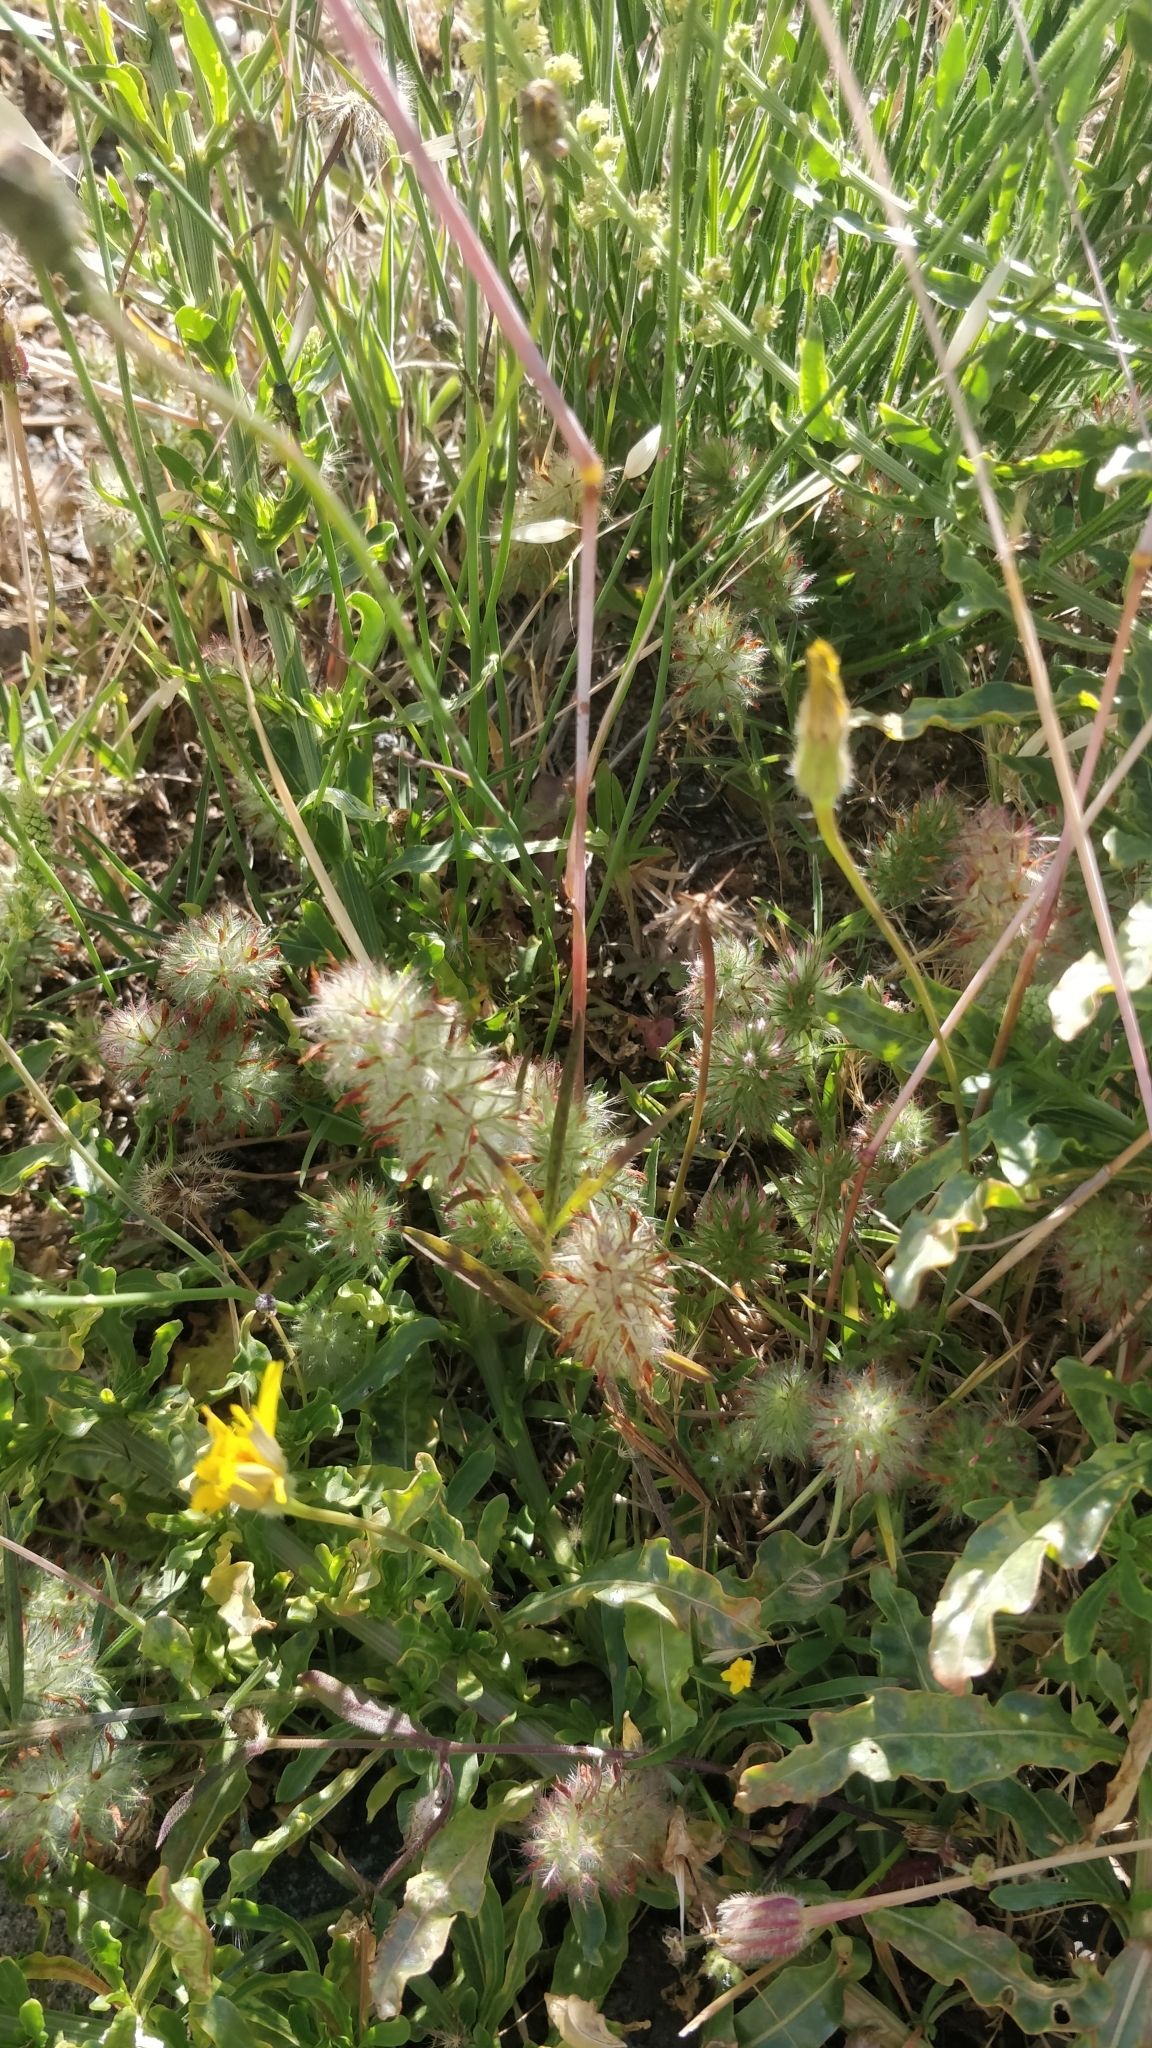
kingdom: Plantae
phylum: Tracheophyta
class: Magnoliopsida
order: Fabales
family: Fabaceae
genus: Trifolium
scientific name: Trifolium angustifolium
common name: Narrow clover
